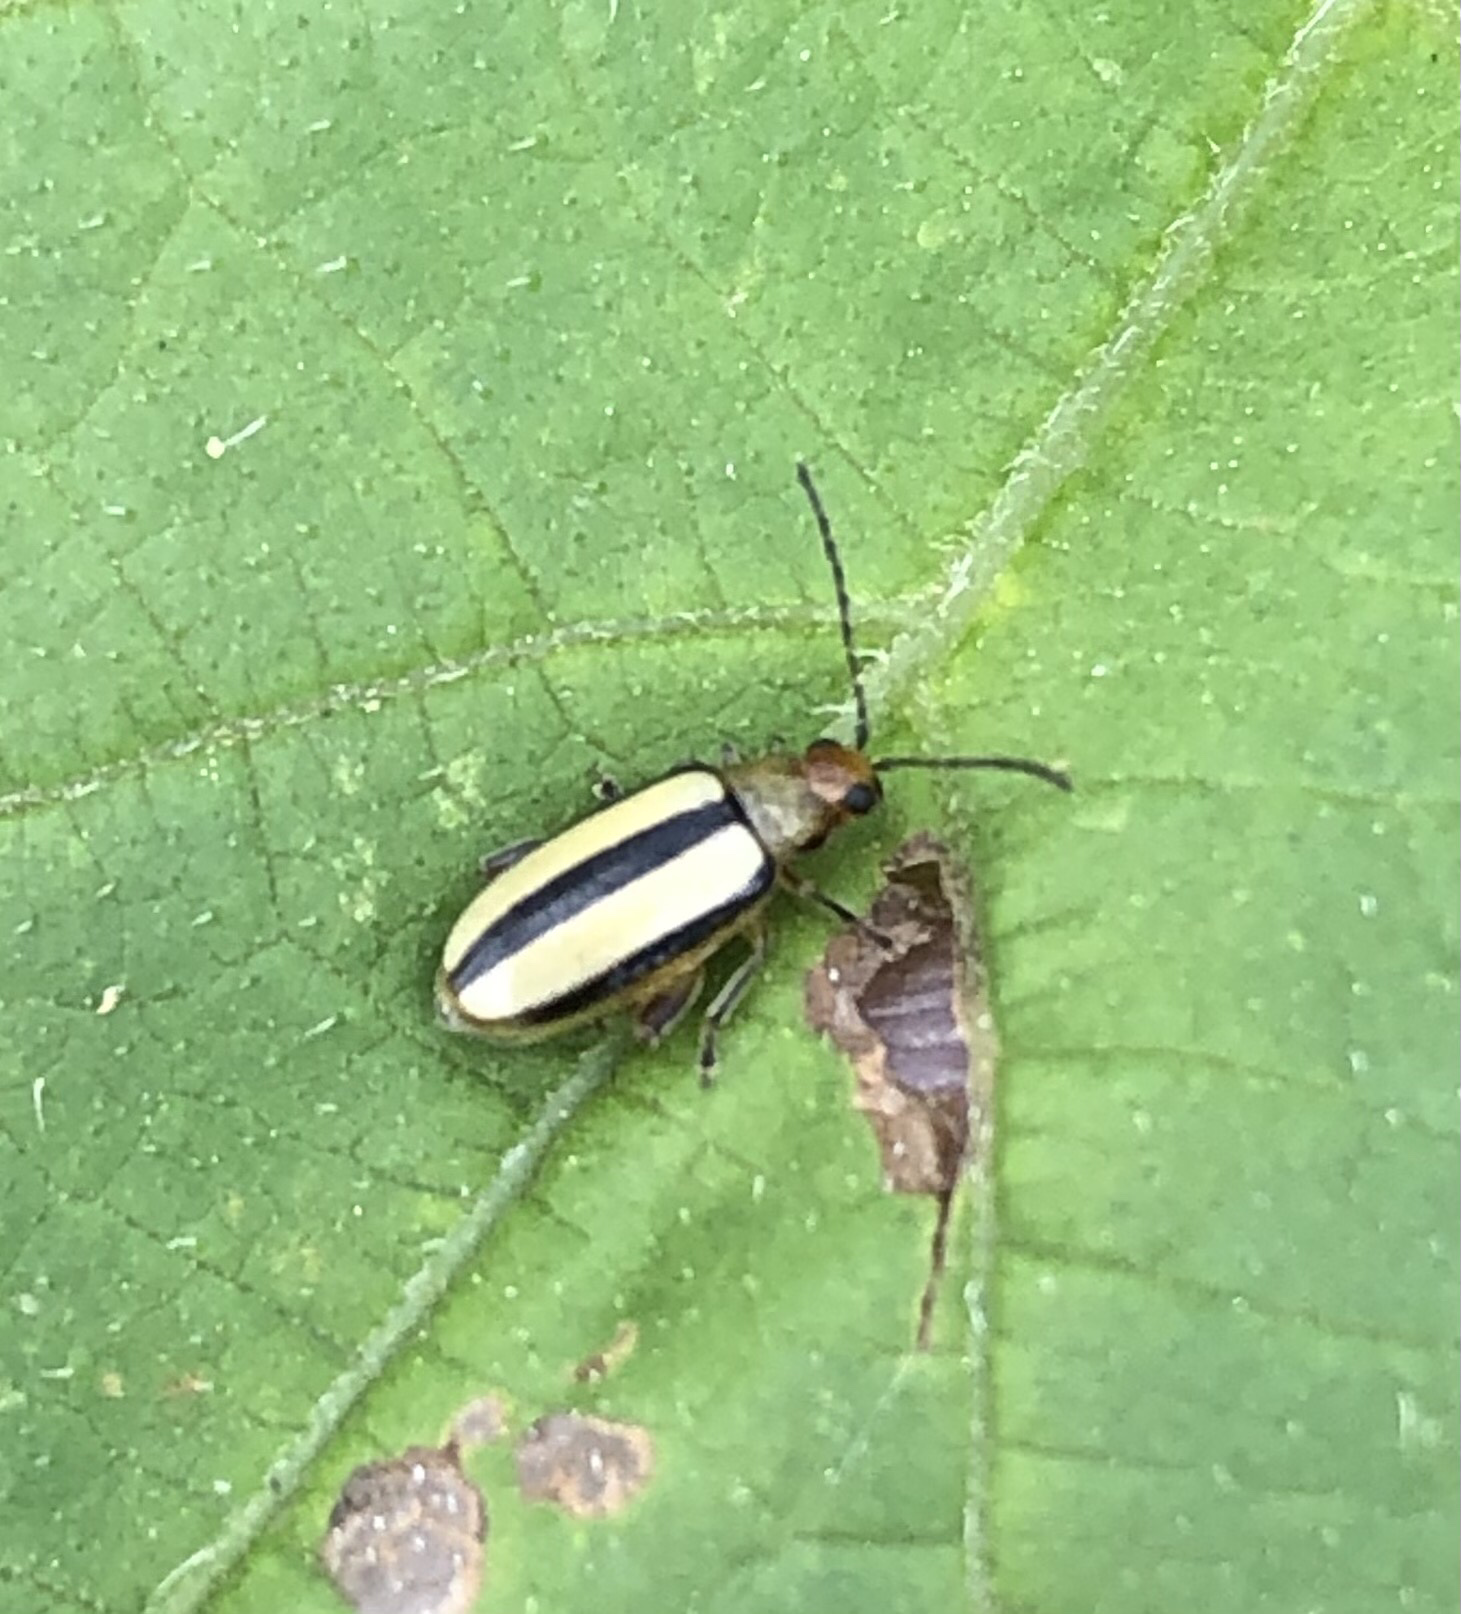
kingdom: Animalia
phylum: Arthropoda
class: Insecta
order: Coleoptera
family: Chrysomelidae
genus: Systena
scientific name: Systena gracilenta
